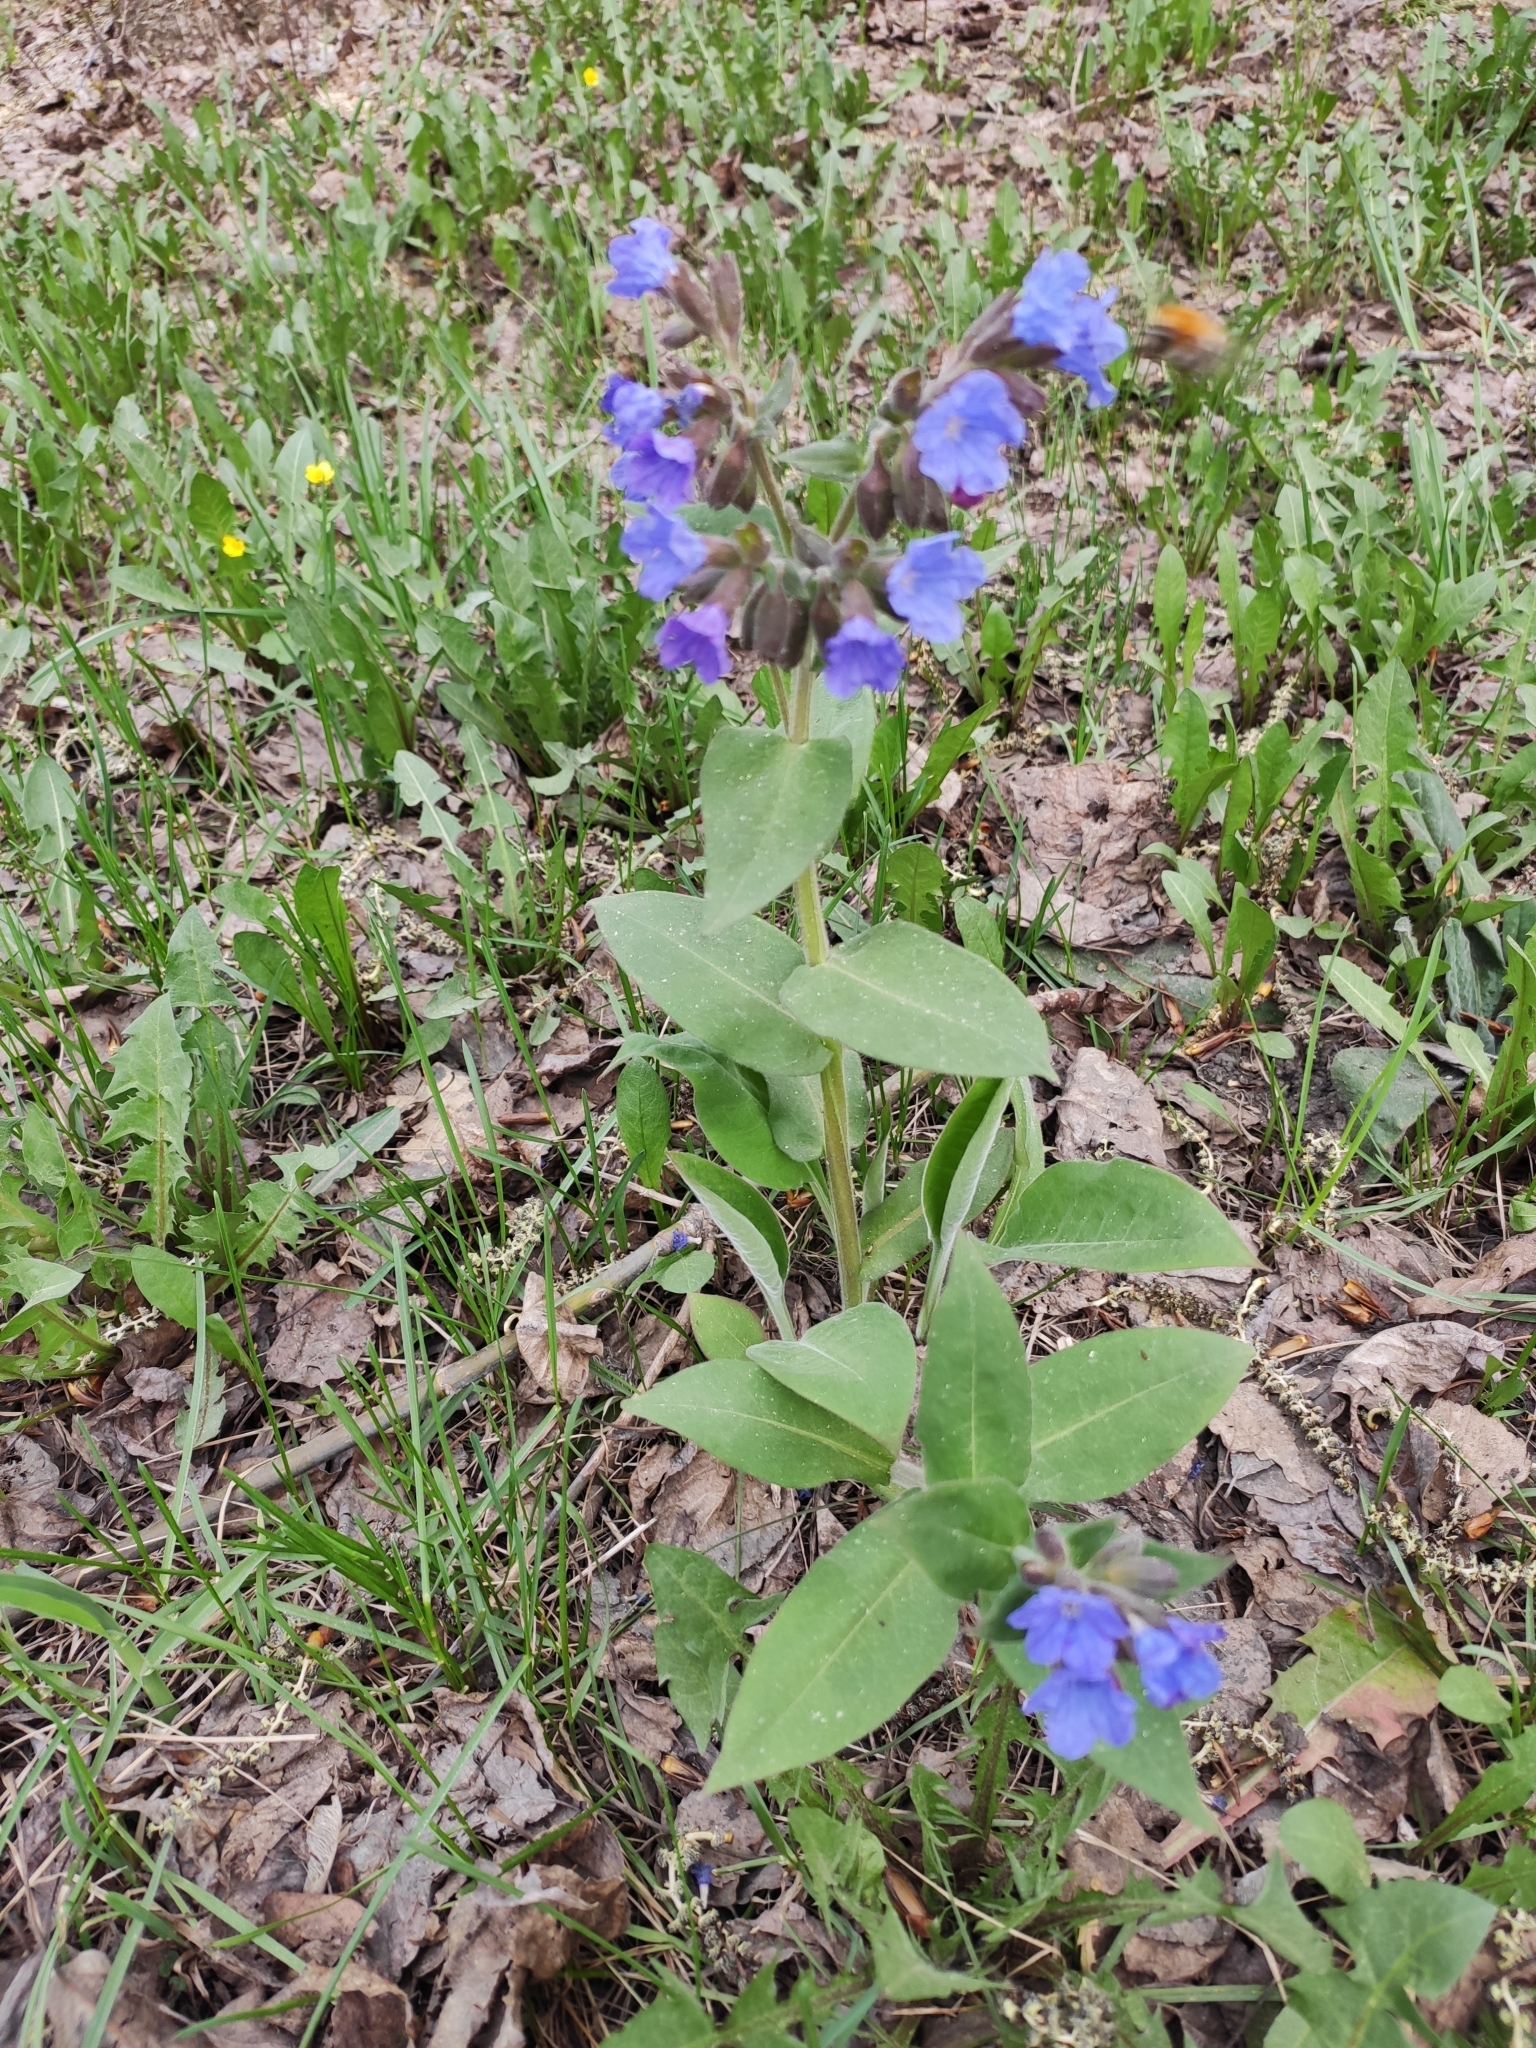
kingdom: Plantae
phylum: Tracheophyta
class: Magnoliopsida
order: Boraginales
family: Boraginaceae
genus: Pulmonaria
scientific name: Pulmonaria mollis
